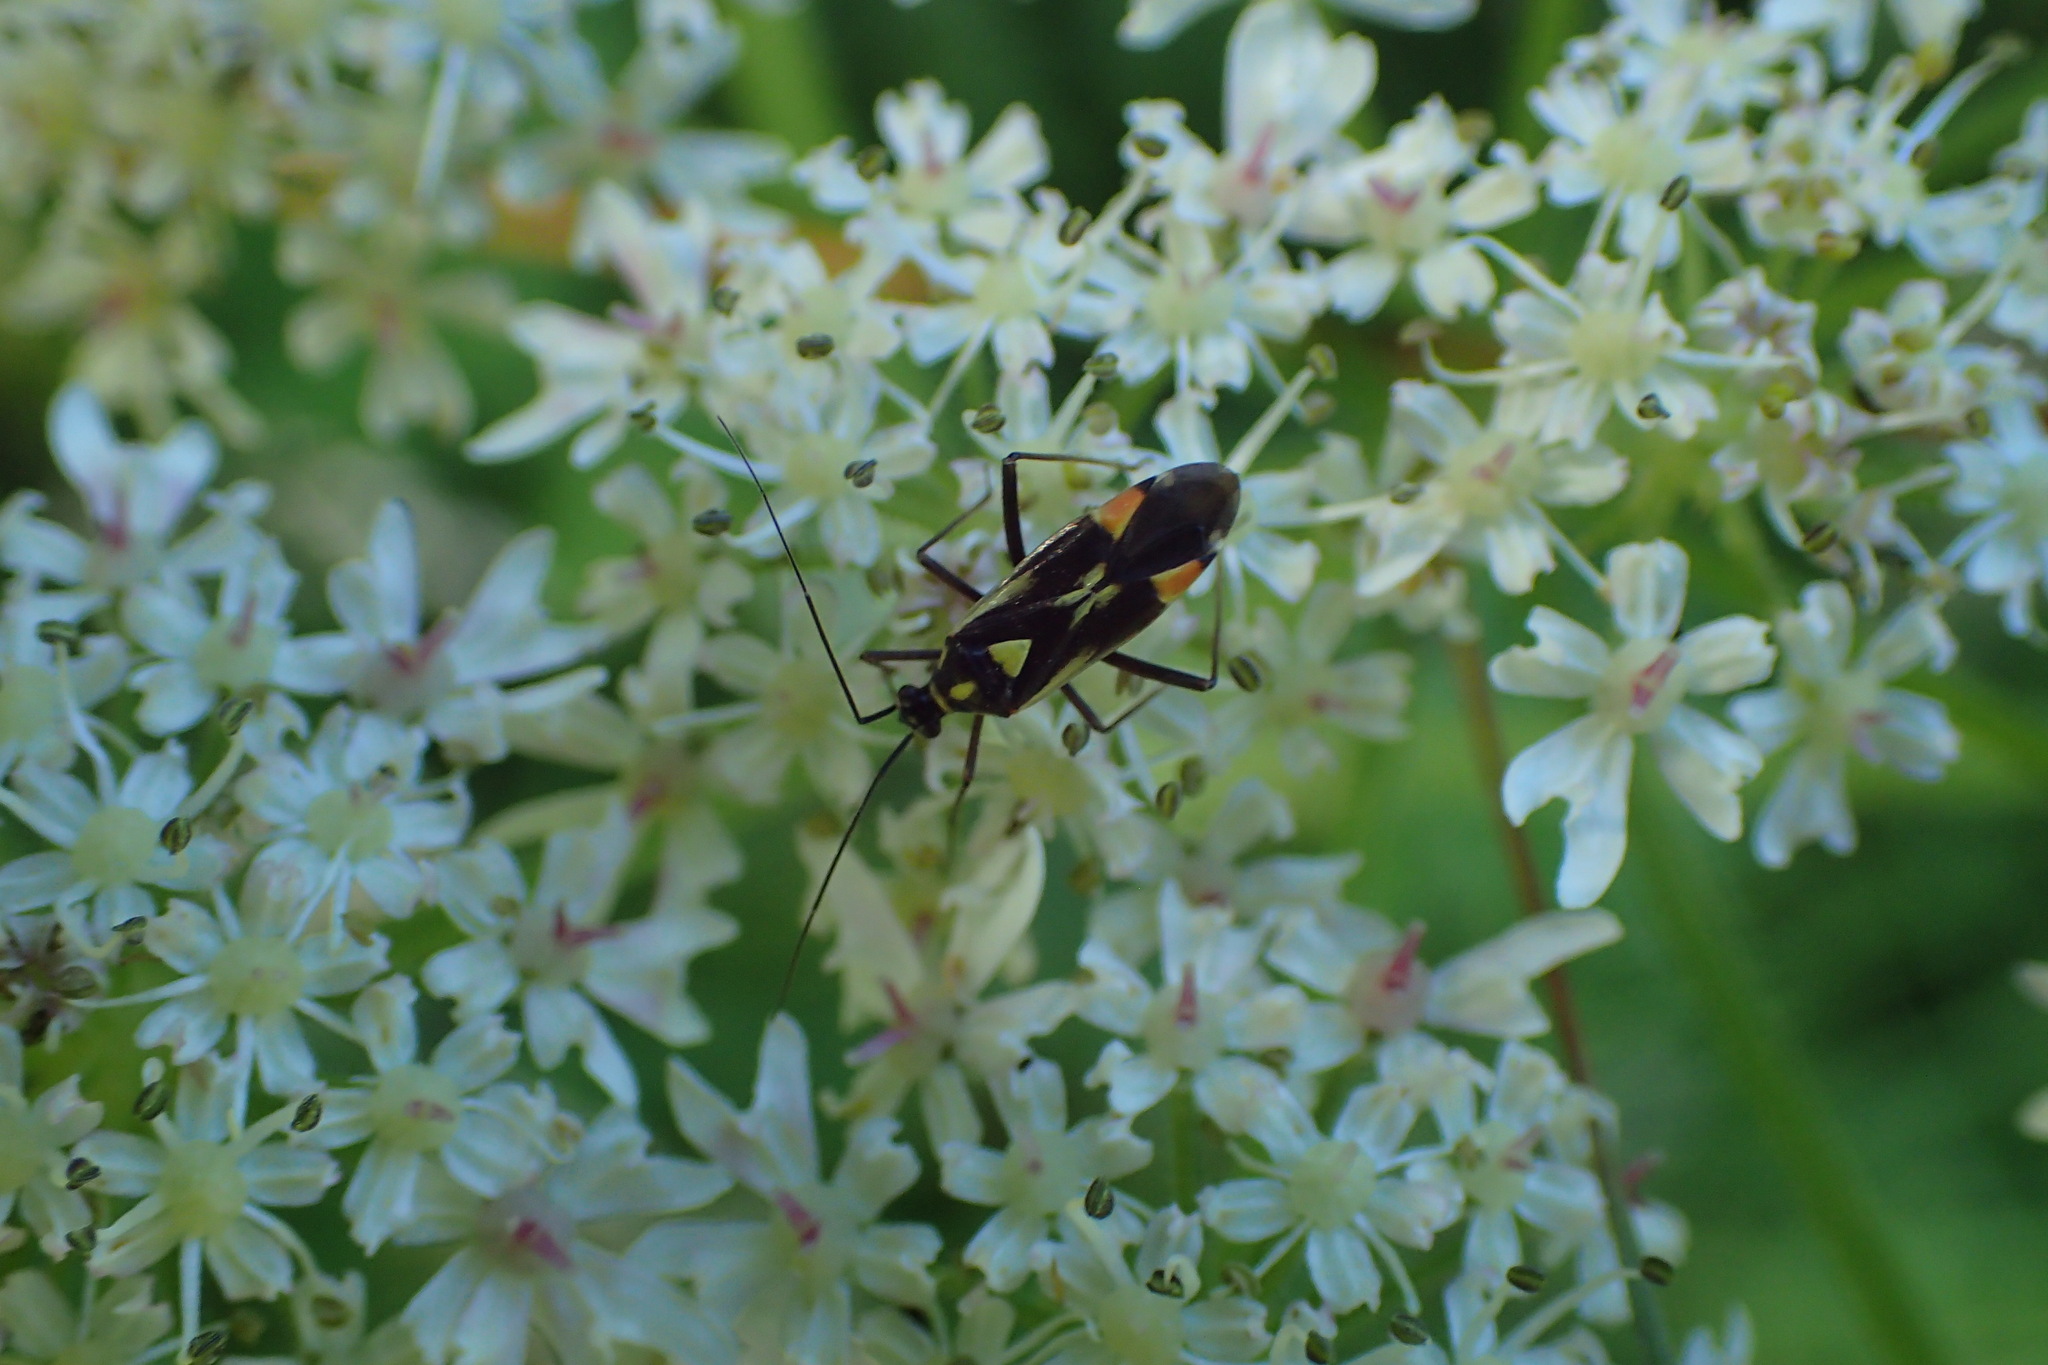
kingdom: Animalia
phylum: Arthropoda
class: Insecta
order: Hemiptera
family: Miridae
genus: Grypocoris
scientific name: Grypocoris stysi
